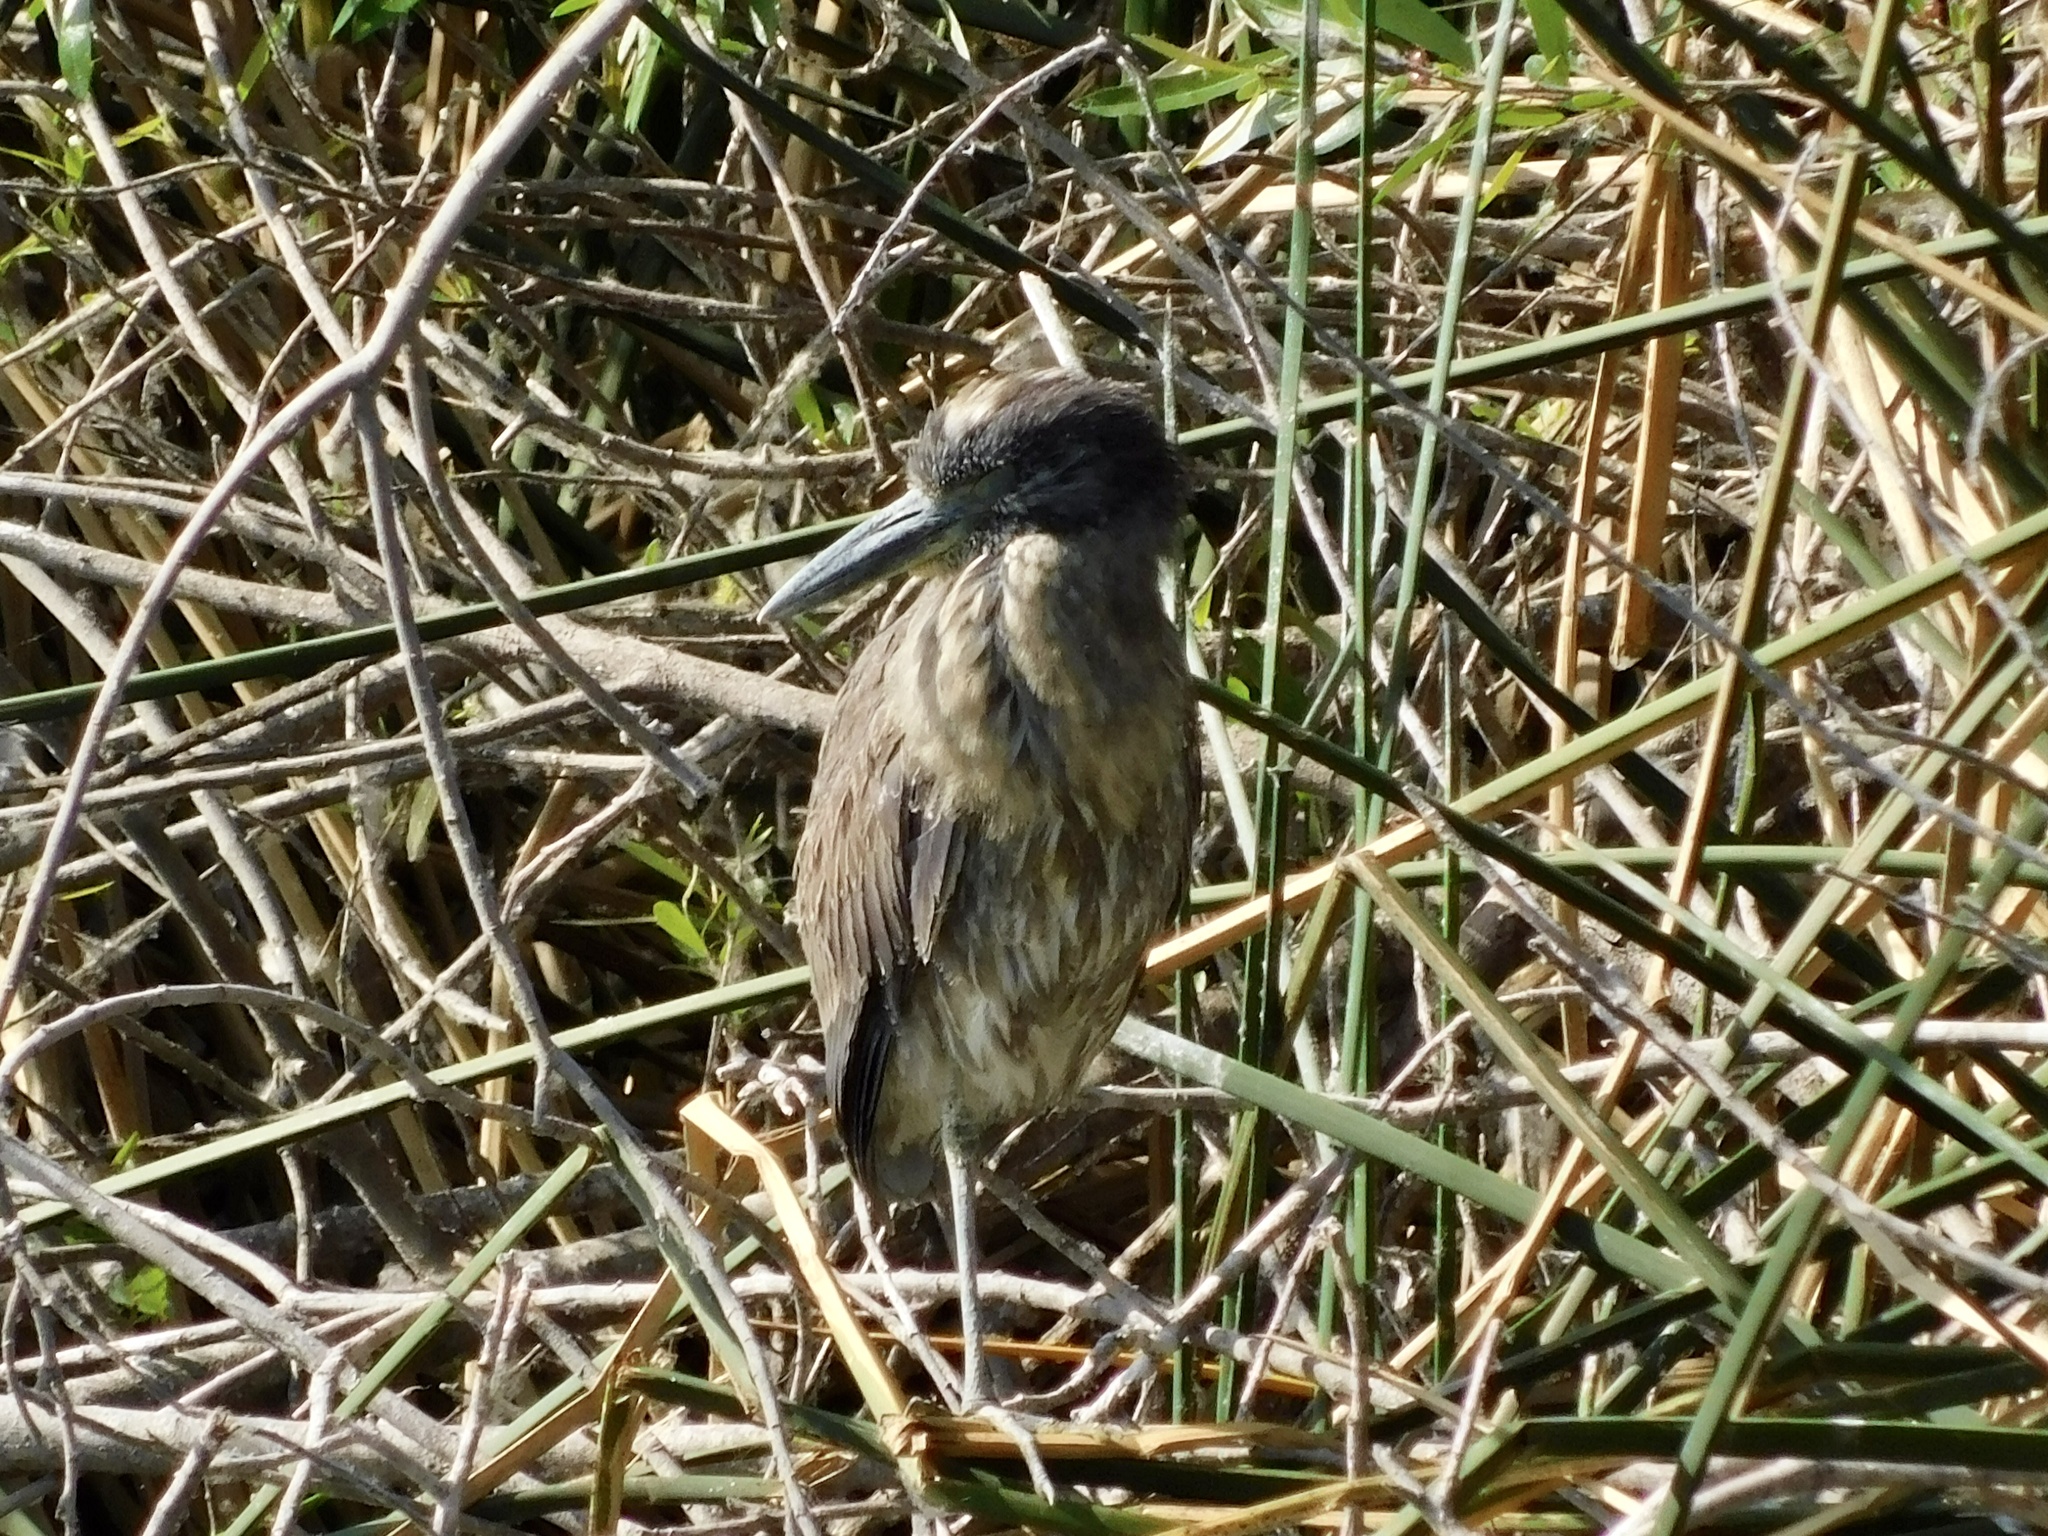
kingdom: Animalia
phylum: Chordata
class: Aves
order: Pelecaniformes
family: Ardeidae
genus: Nyctanassa
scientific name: Nyctanassa violacea
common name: Yellow-crowned night heron
